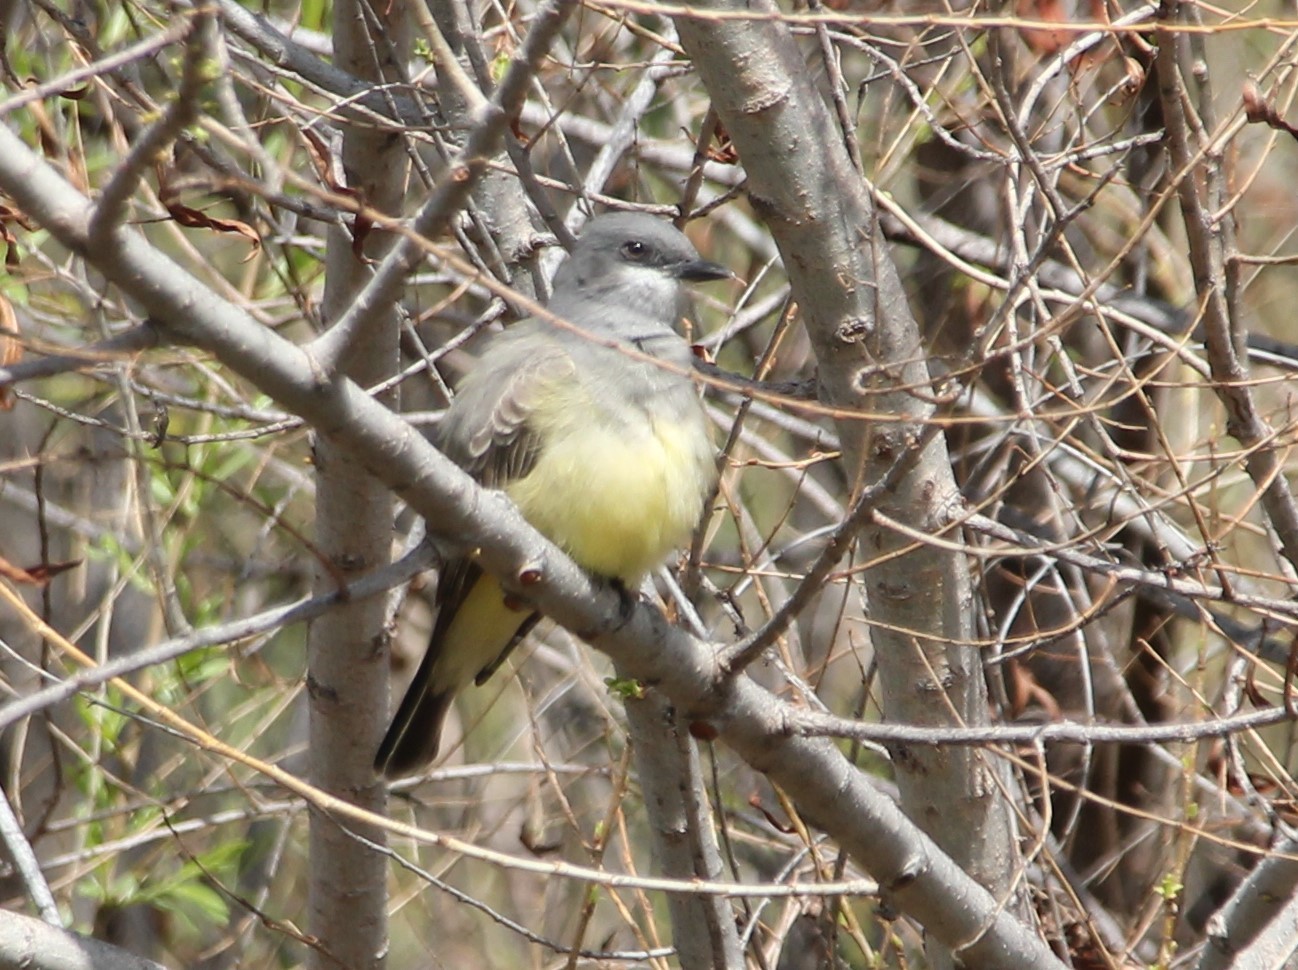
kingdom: Animalia
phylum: Chordata
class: Aves
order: Passeriformes
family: Tyrannidae
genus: Tyrannus
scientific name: Tyrannus vociferans
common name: Cassin's kingbird
